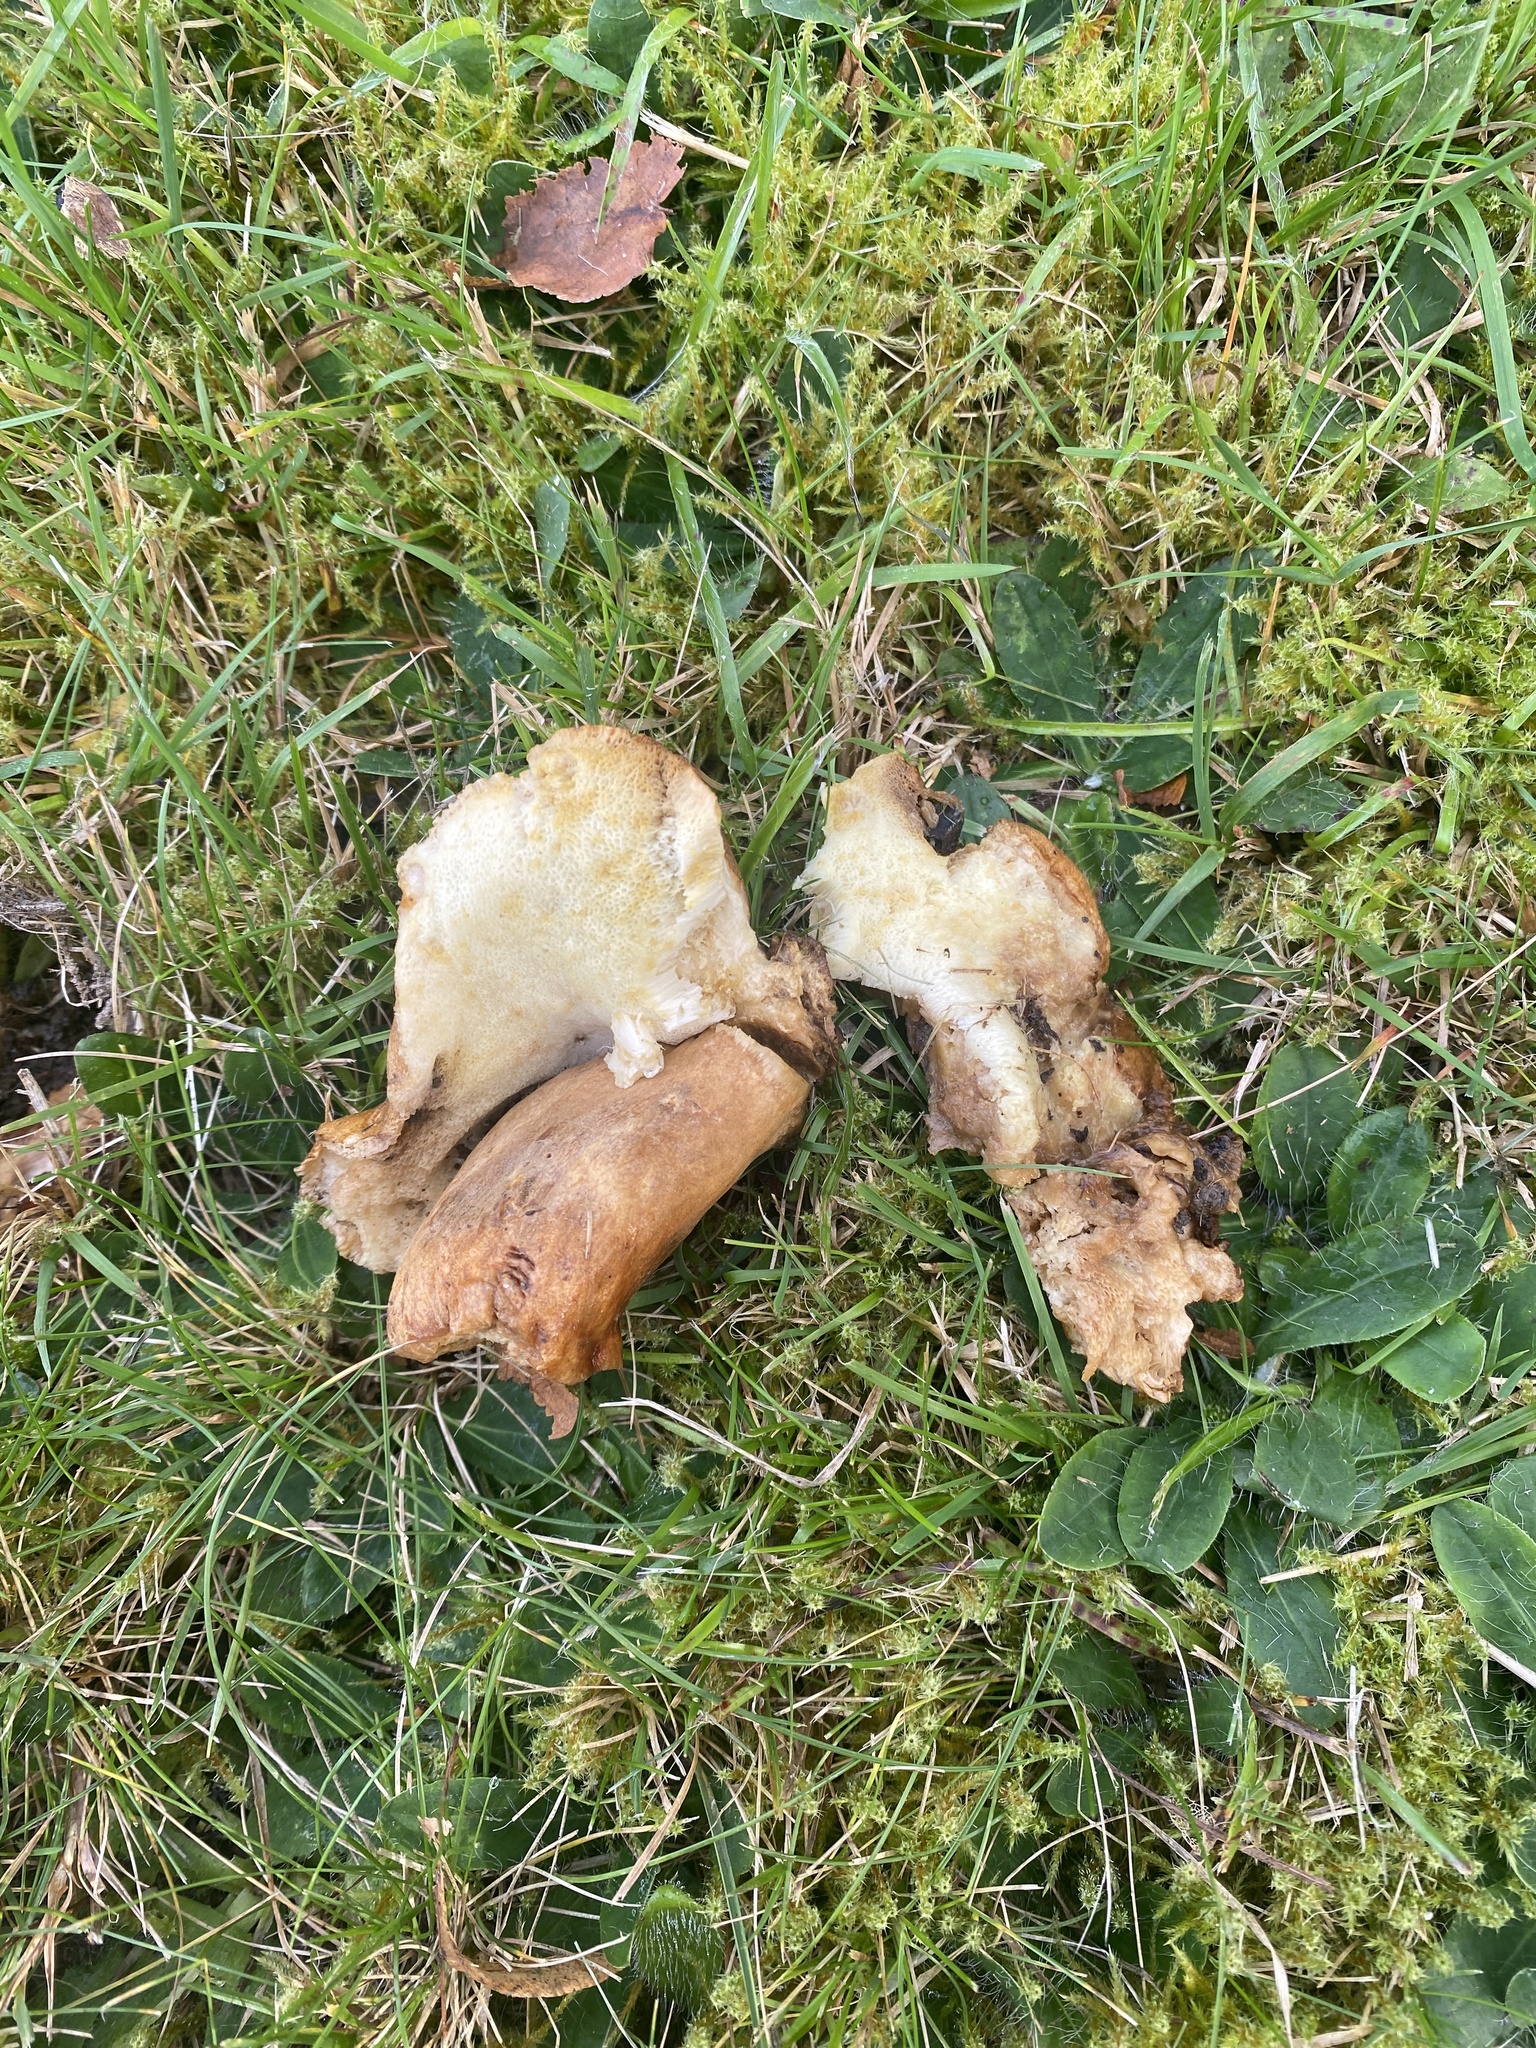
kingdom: Fungi
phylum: Basidiomycota
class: Agaricomycetes
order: Boletales
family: Gyroporaceae
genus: Gyroporus
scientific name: Gyroporus castaneus
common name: Chestnut bolete
